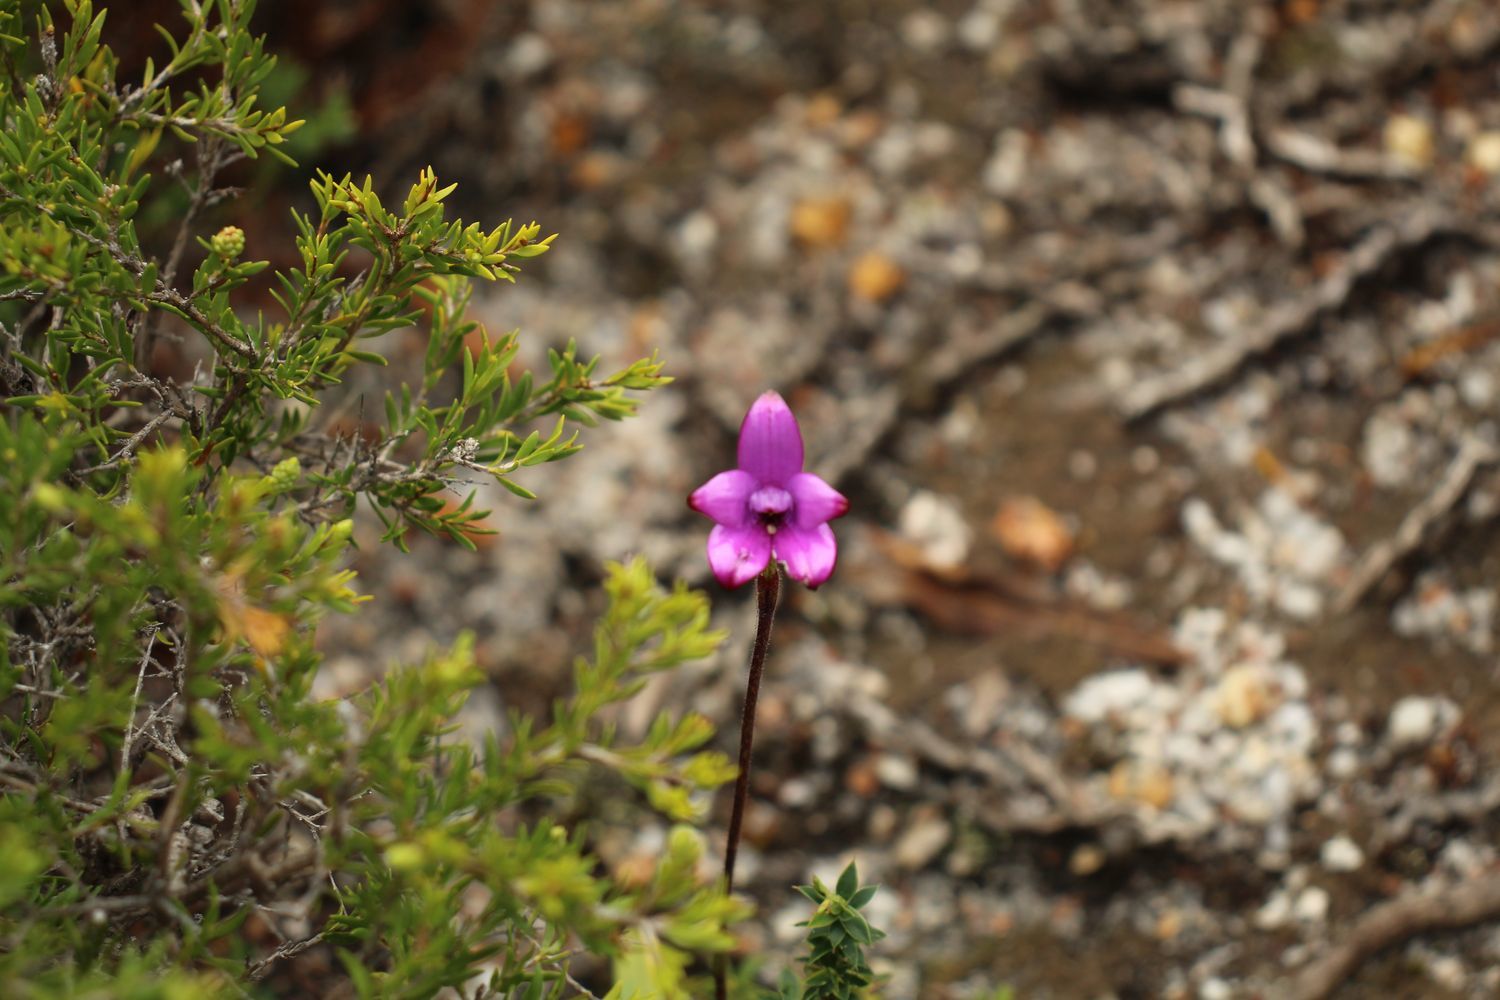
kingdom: Plantae
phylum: Tracheophyta
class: Liliopsida
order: Asparagales
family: Orchidaceae
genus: Caladenia
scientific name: Caladenia brunonis
